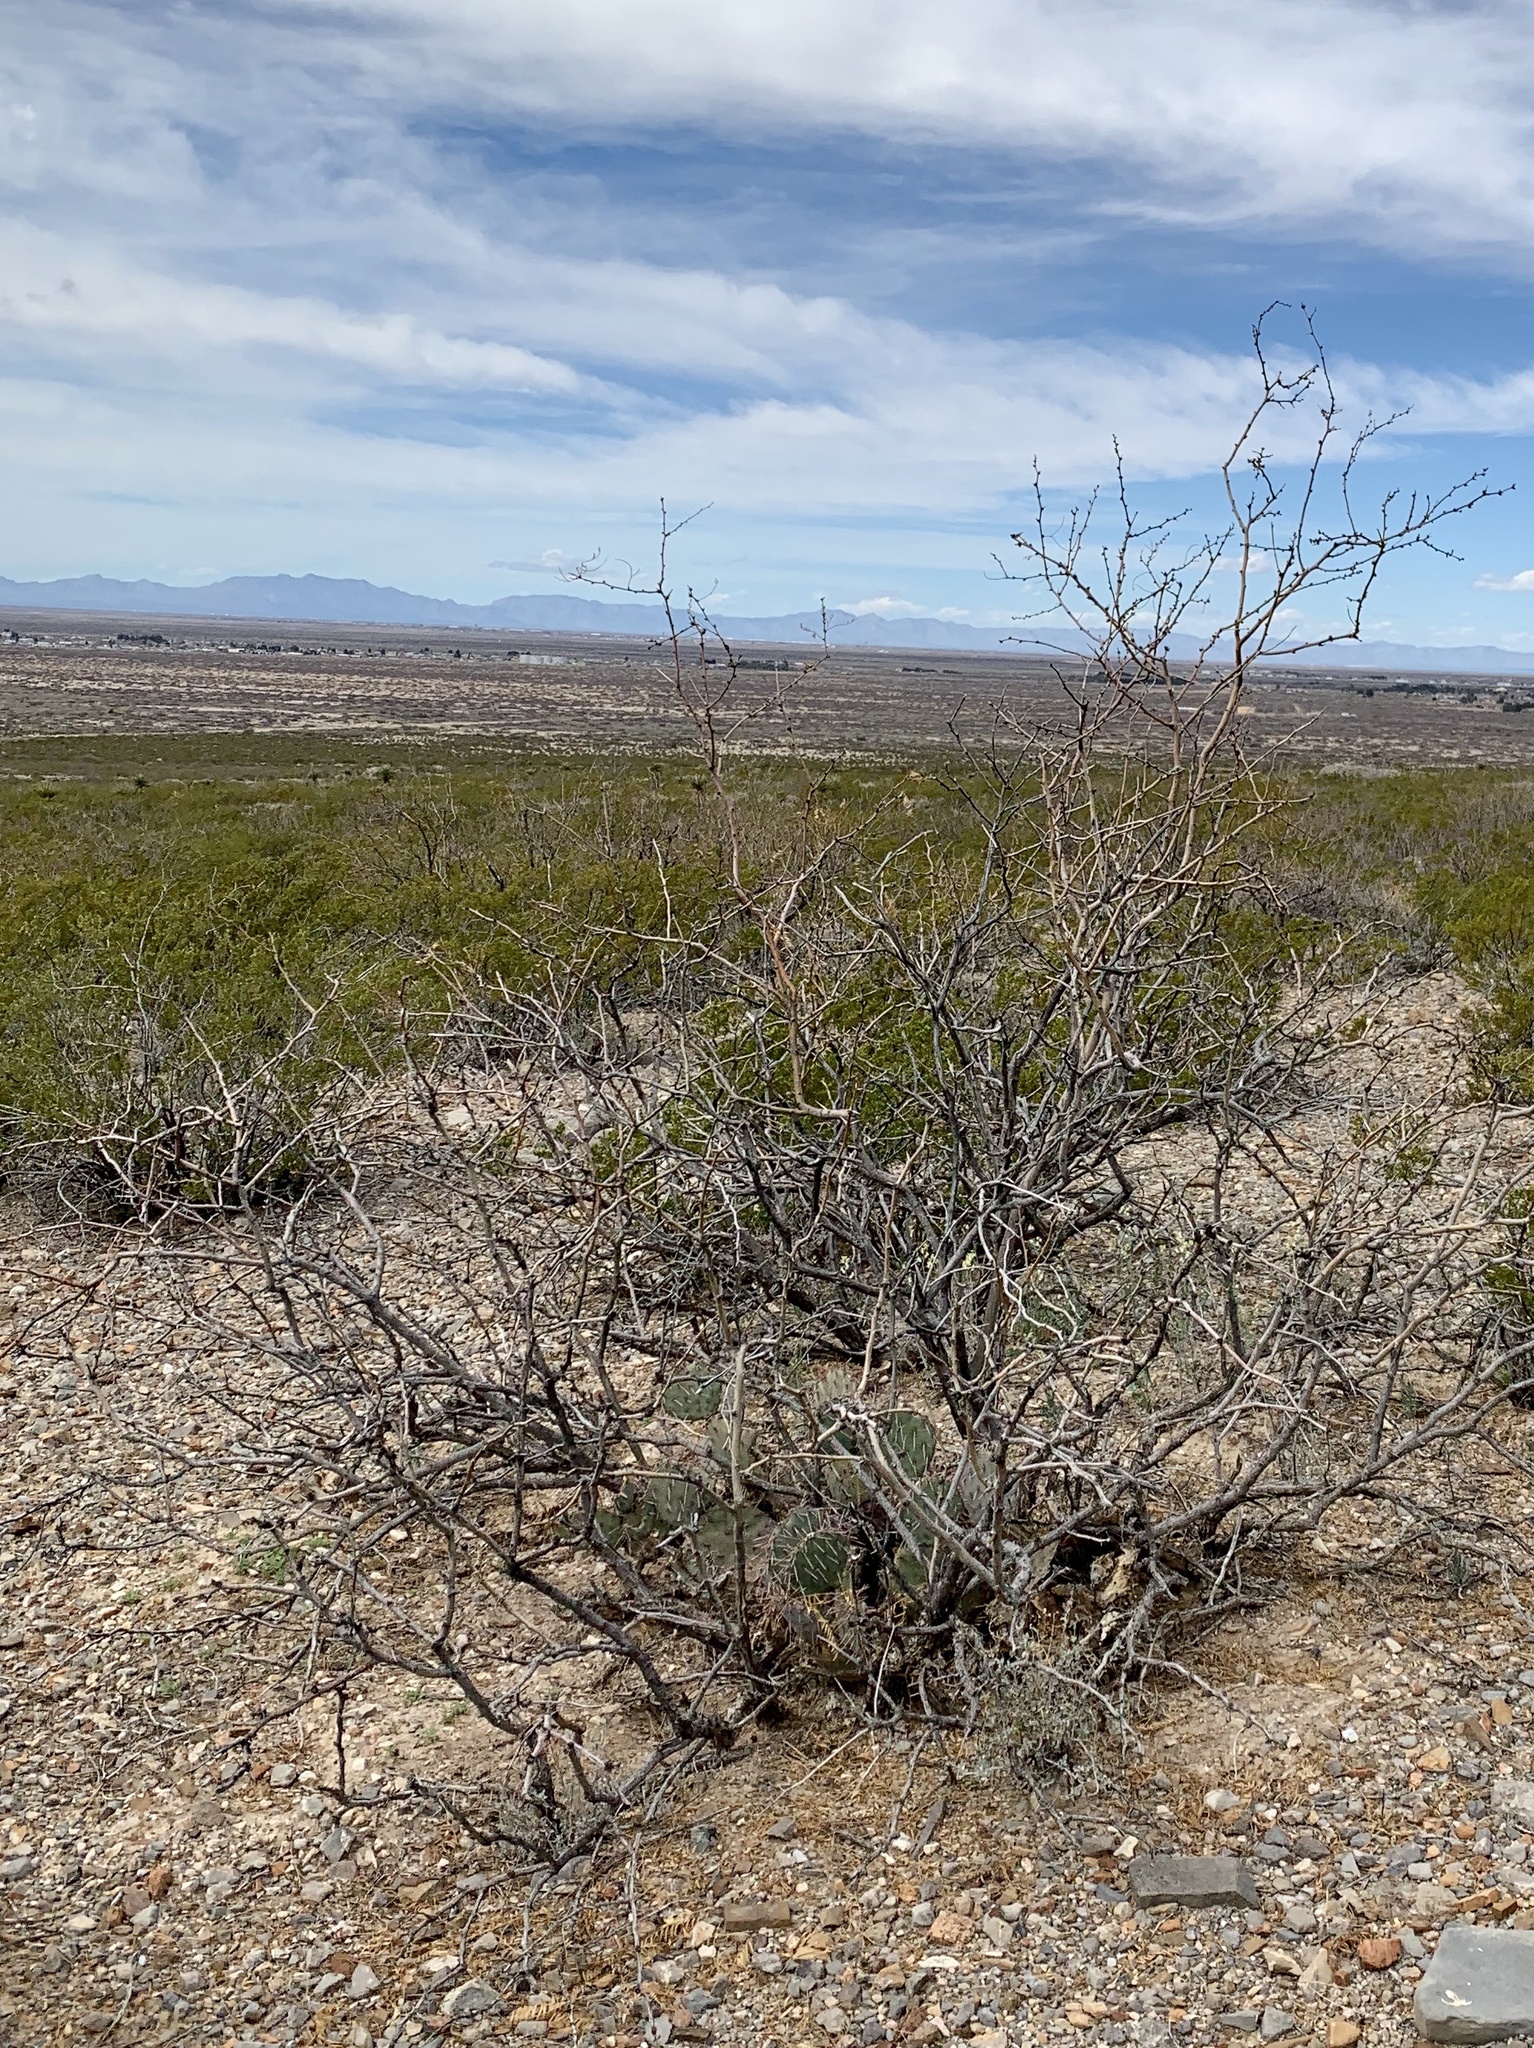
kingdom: Plantae
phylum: Tracheophyta
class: Magnoliopsida
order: Fabales
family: Fabaceae
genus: Prosopis
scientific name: Prosopis glandulosa
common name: Honey mesquite
